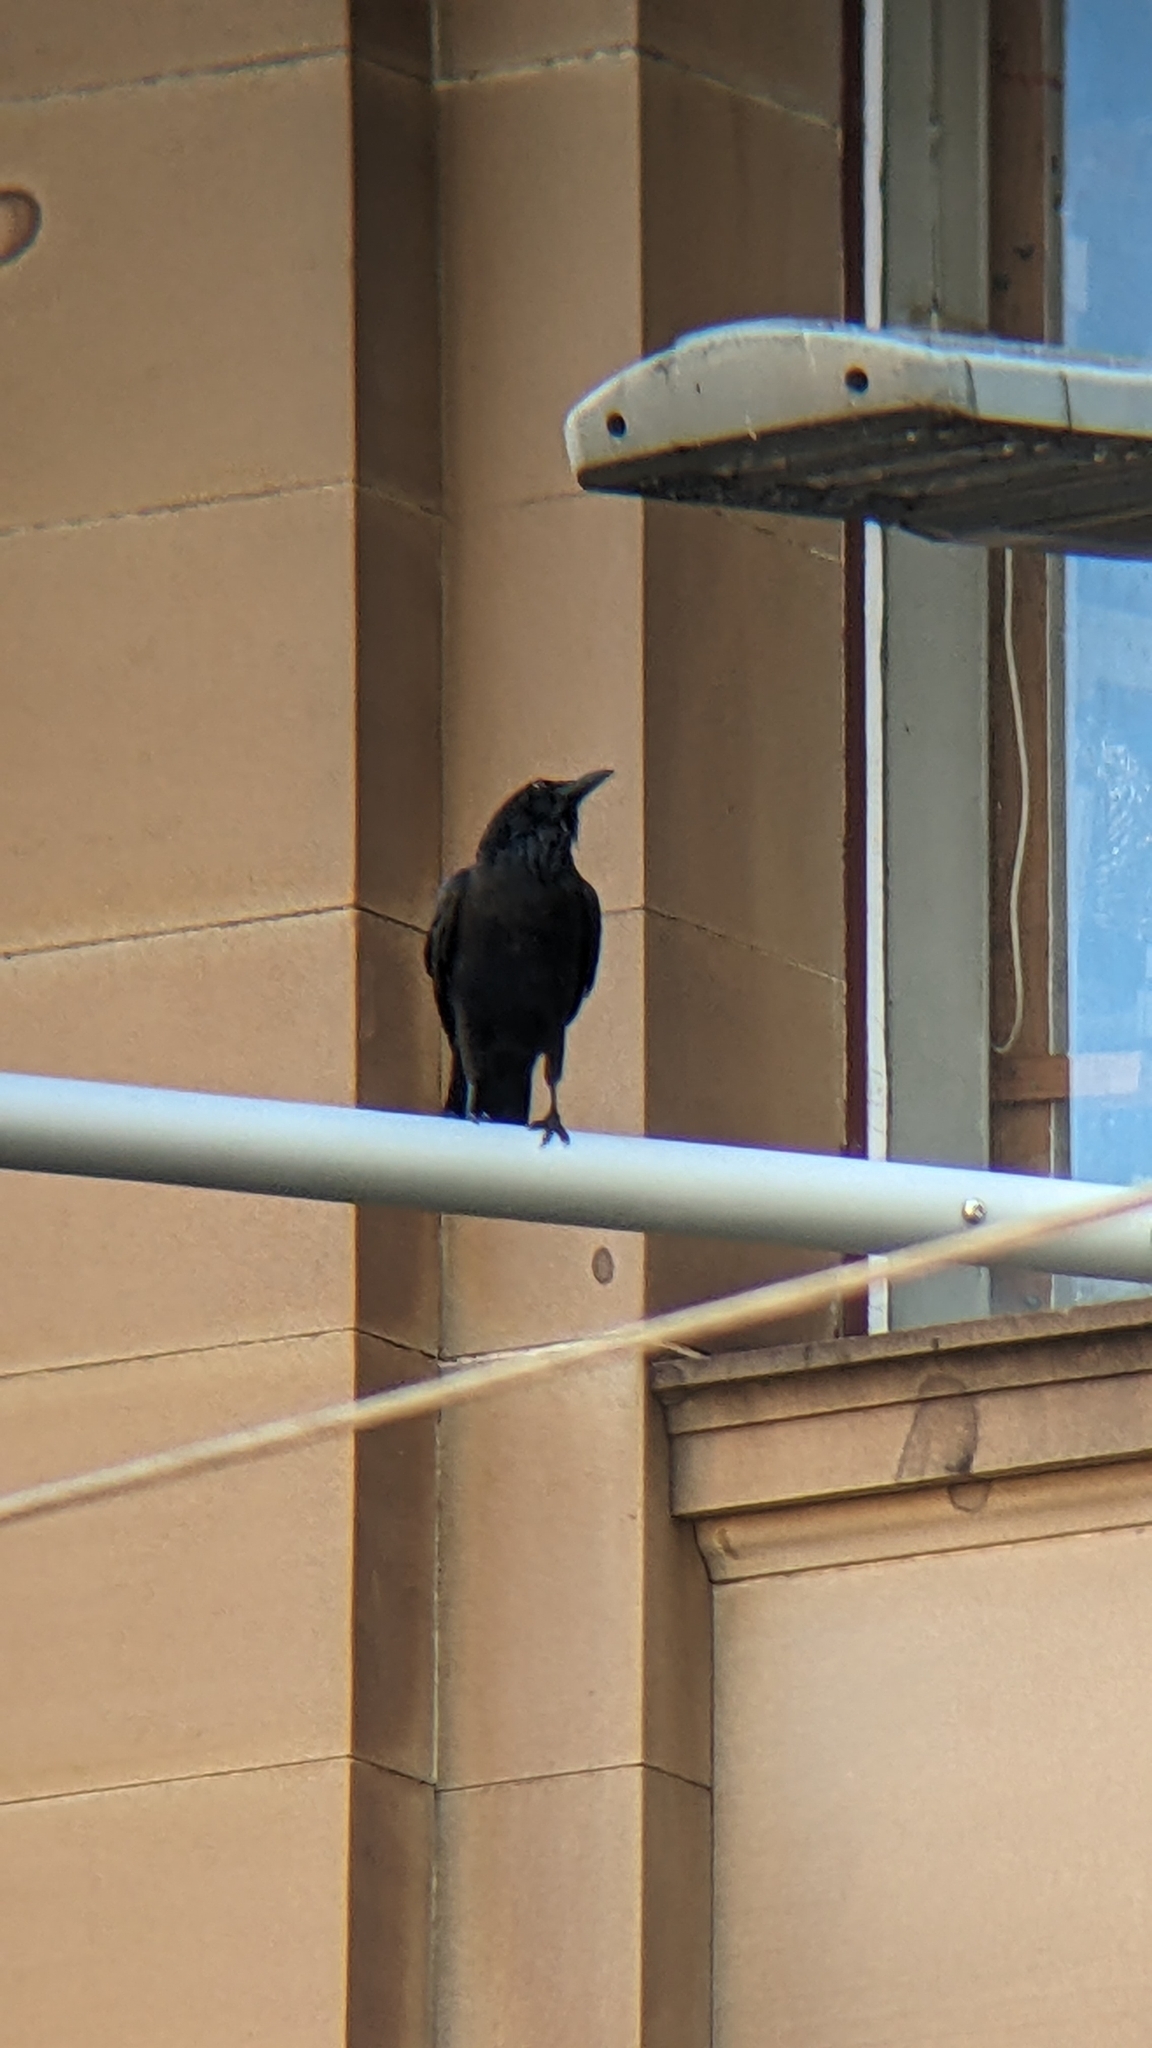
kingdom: Animalia
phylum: Chordata
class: Aves
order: Passeriformes
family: Corvidae
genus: Corvus
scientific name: Corvus coronoides
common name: Australian raven
